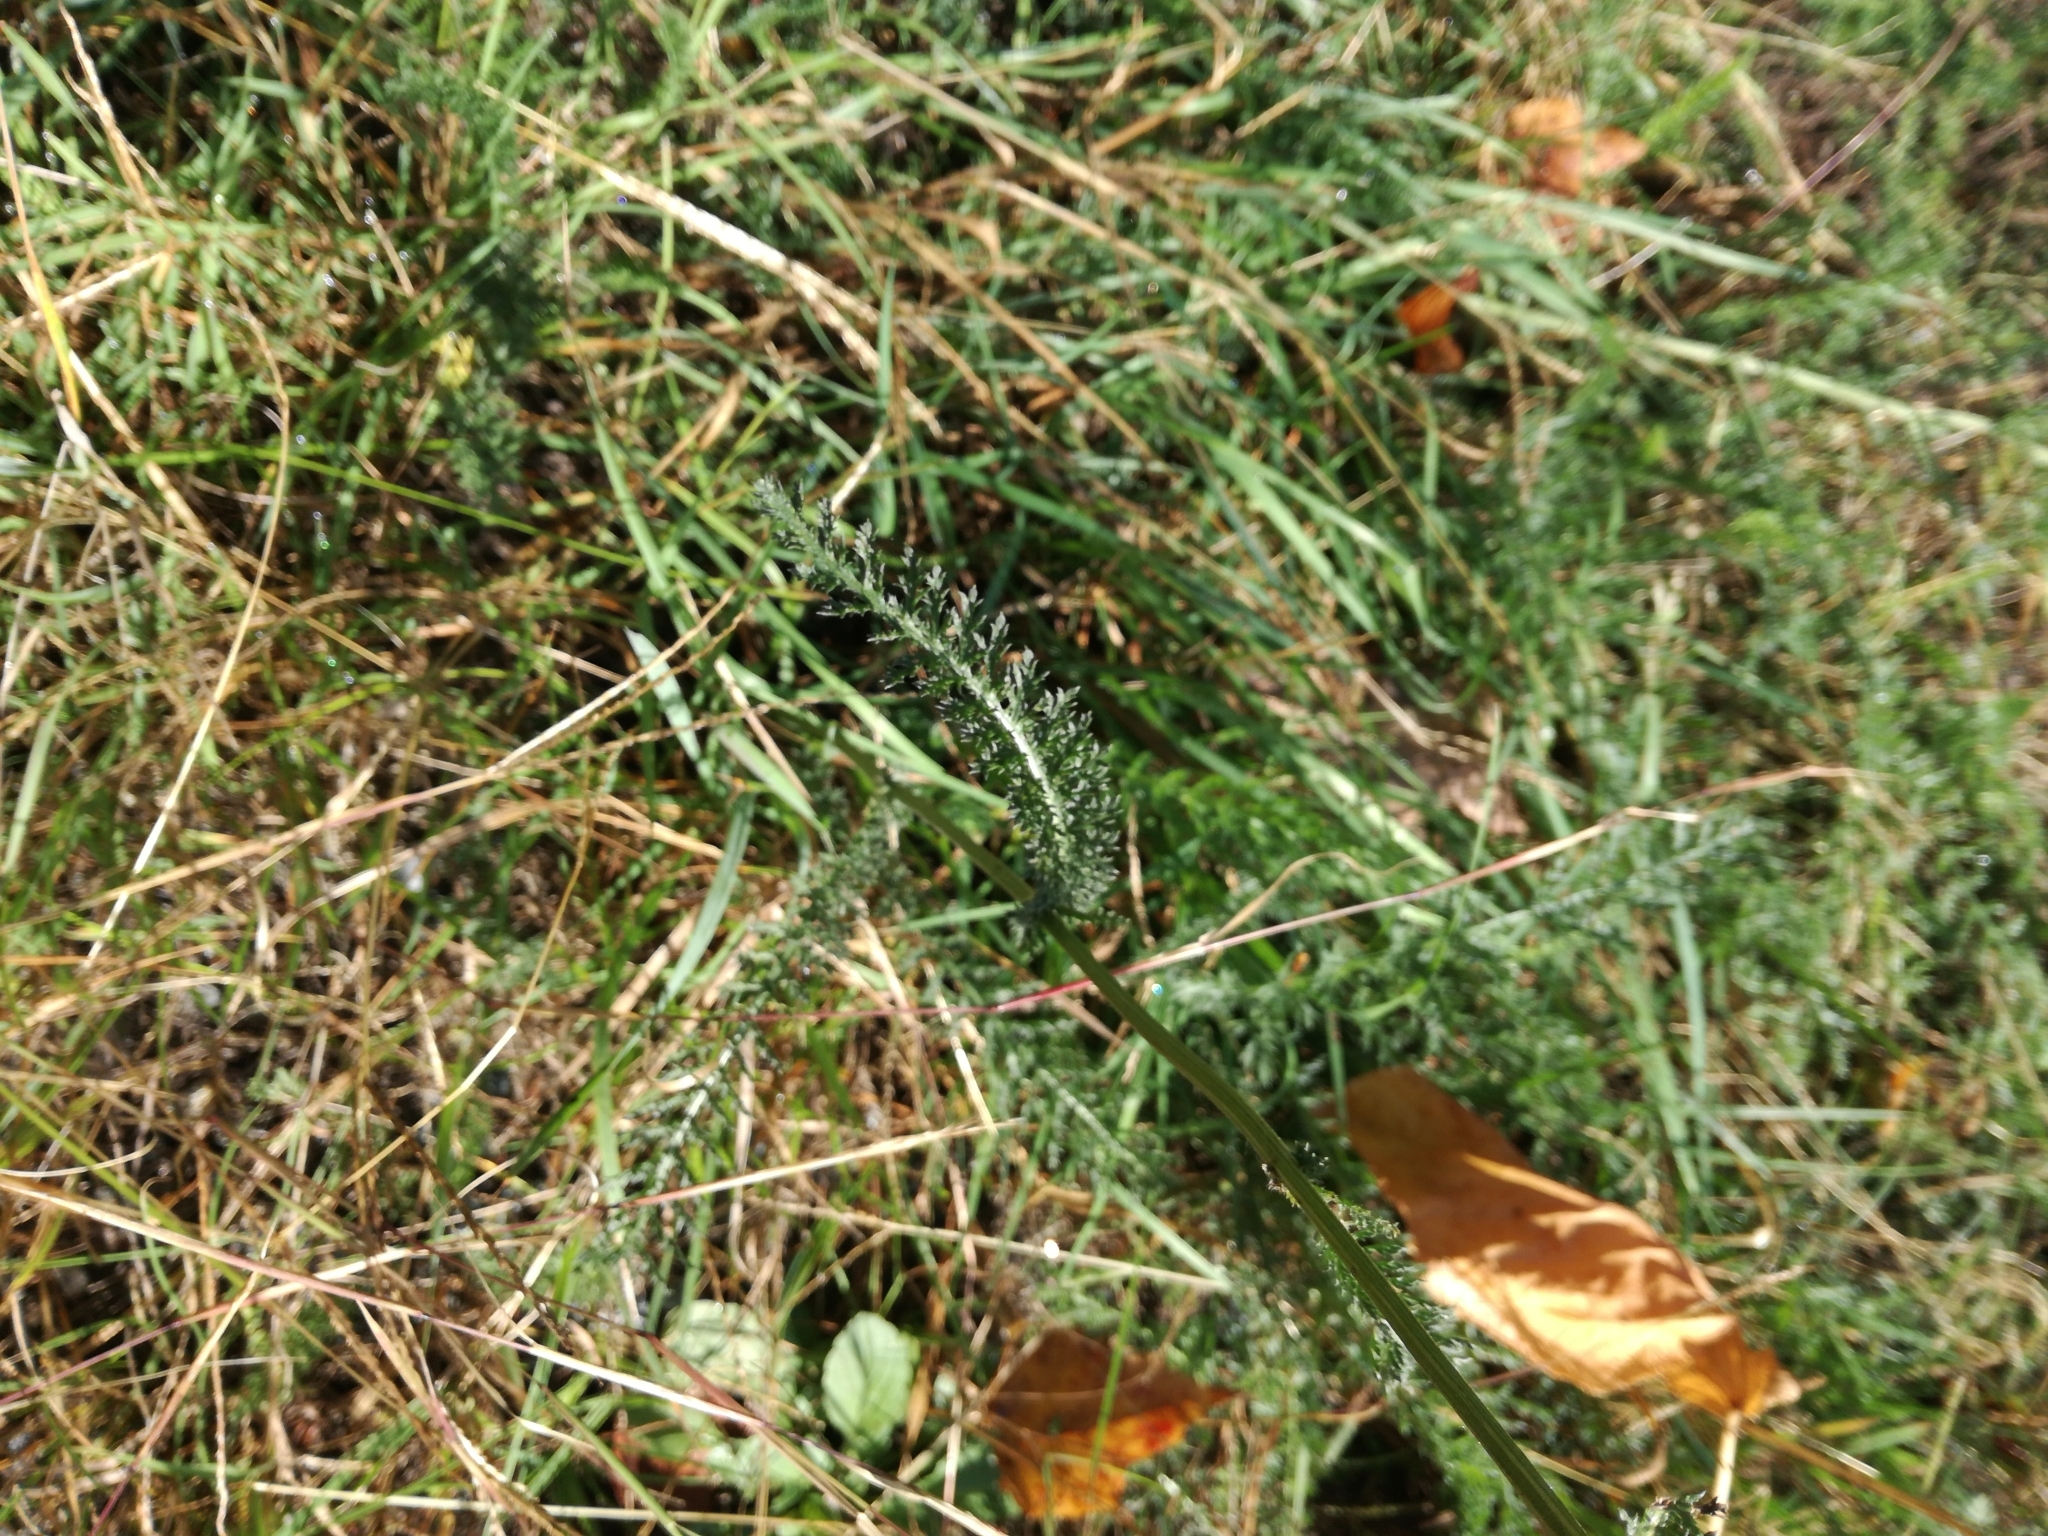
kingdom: Plantae
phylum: Tracheophyta
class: Magnoliopsida
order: Asterales
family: Asteraceae
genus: Achillea
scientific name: Achillea millefolium
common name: Yarrow
